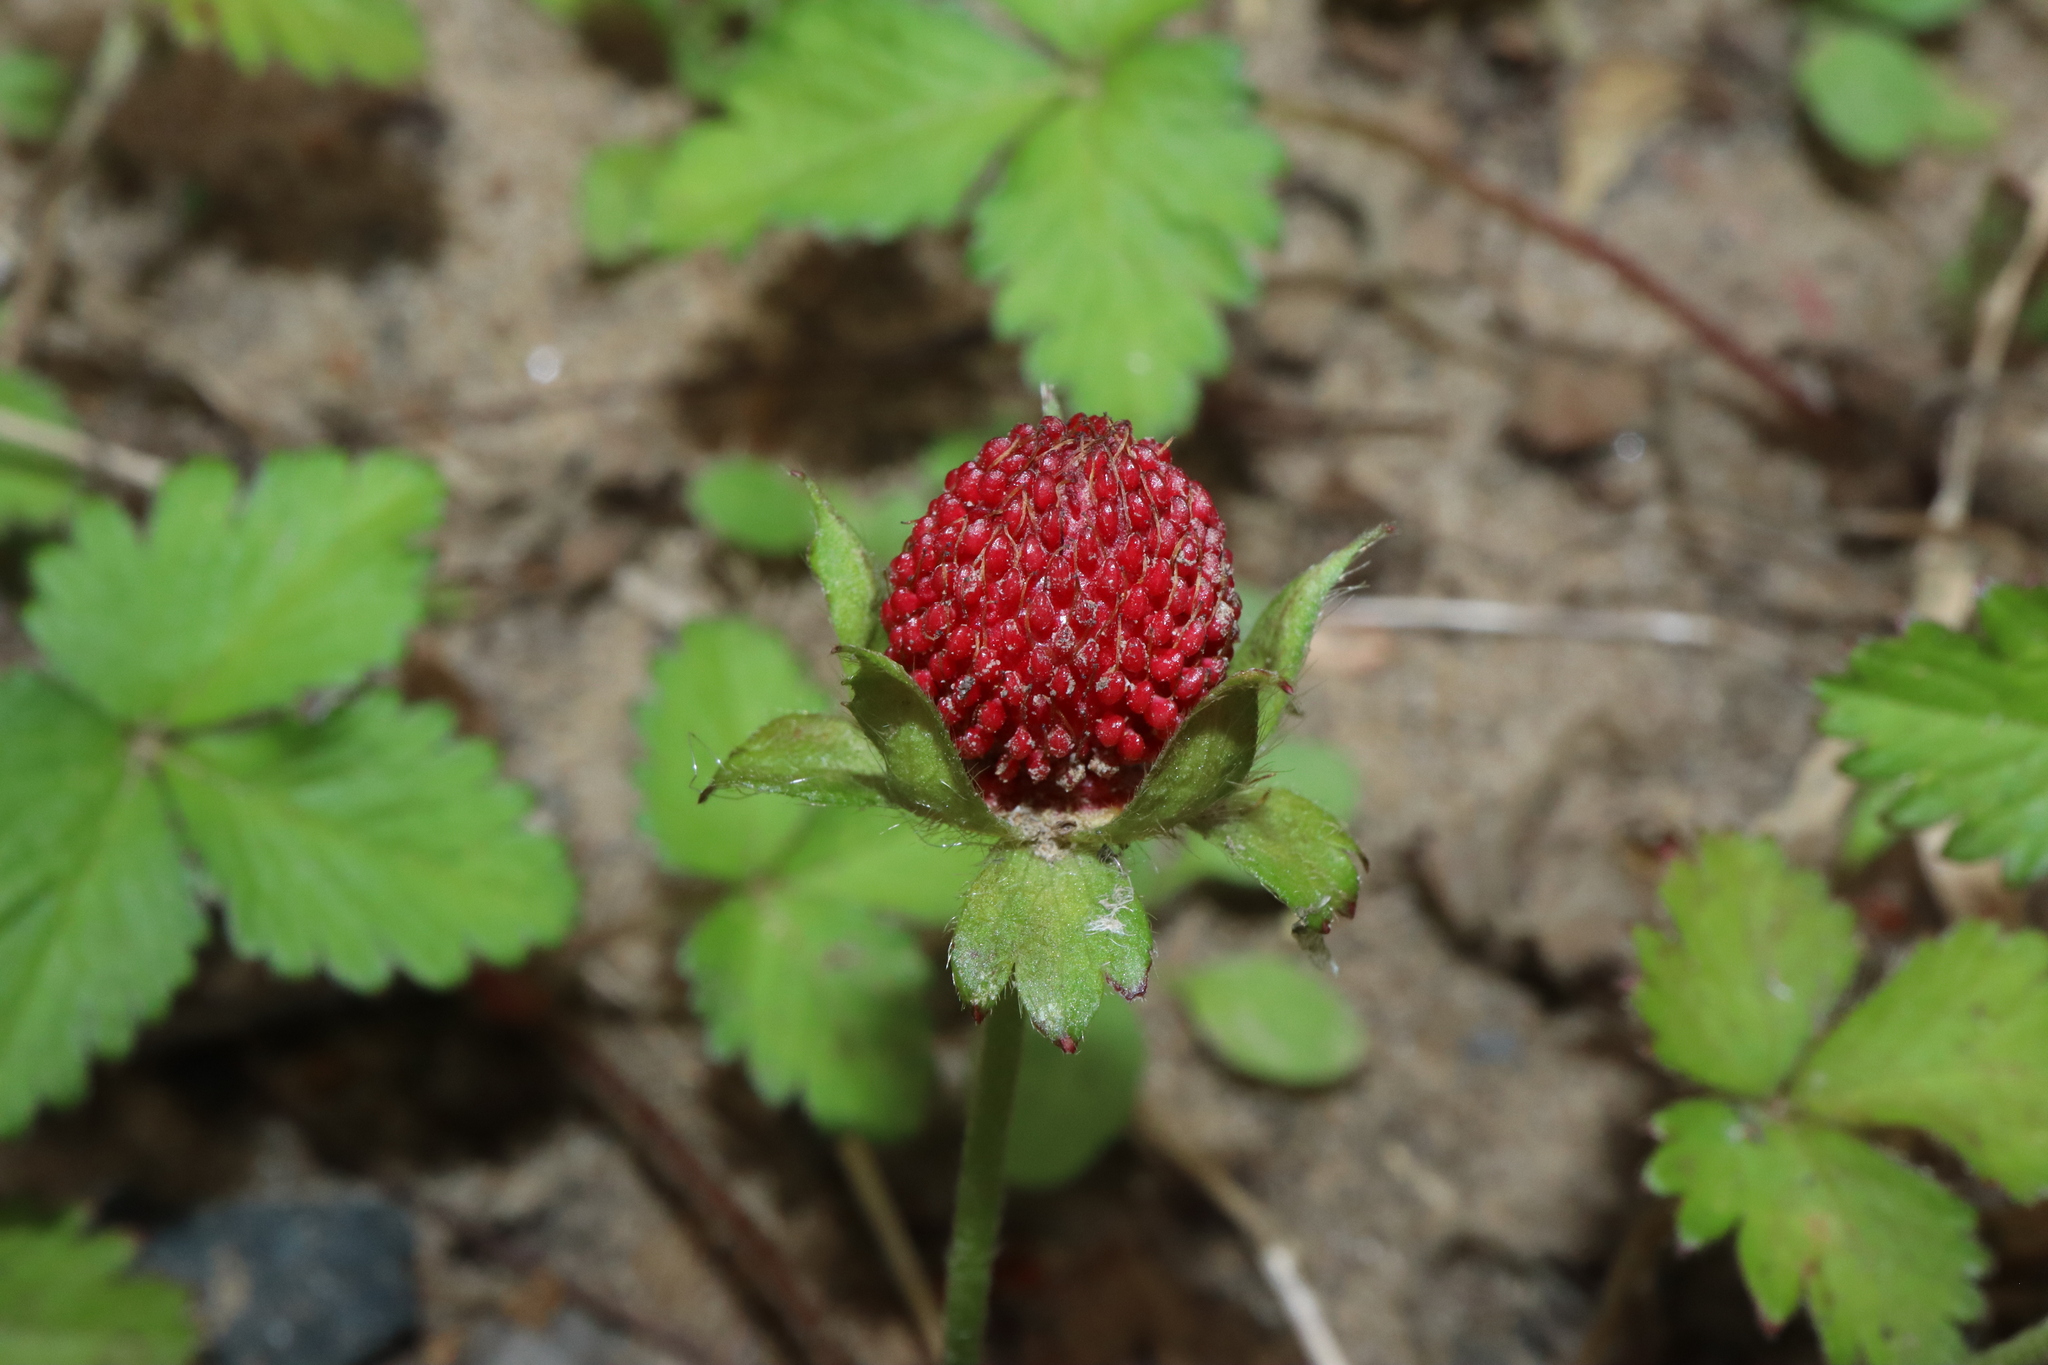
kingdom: Plantae
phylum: Tracheophyta
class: Magnoliopsida
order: Rosales
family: Rosaceae
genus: Potentilla
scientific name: Potentilla indica
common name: Yellow-flowered strawberry
